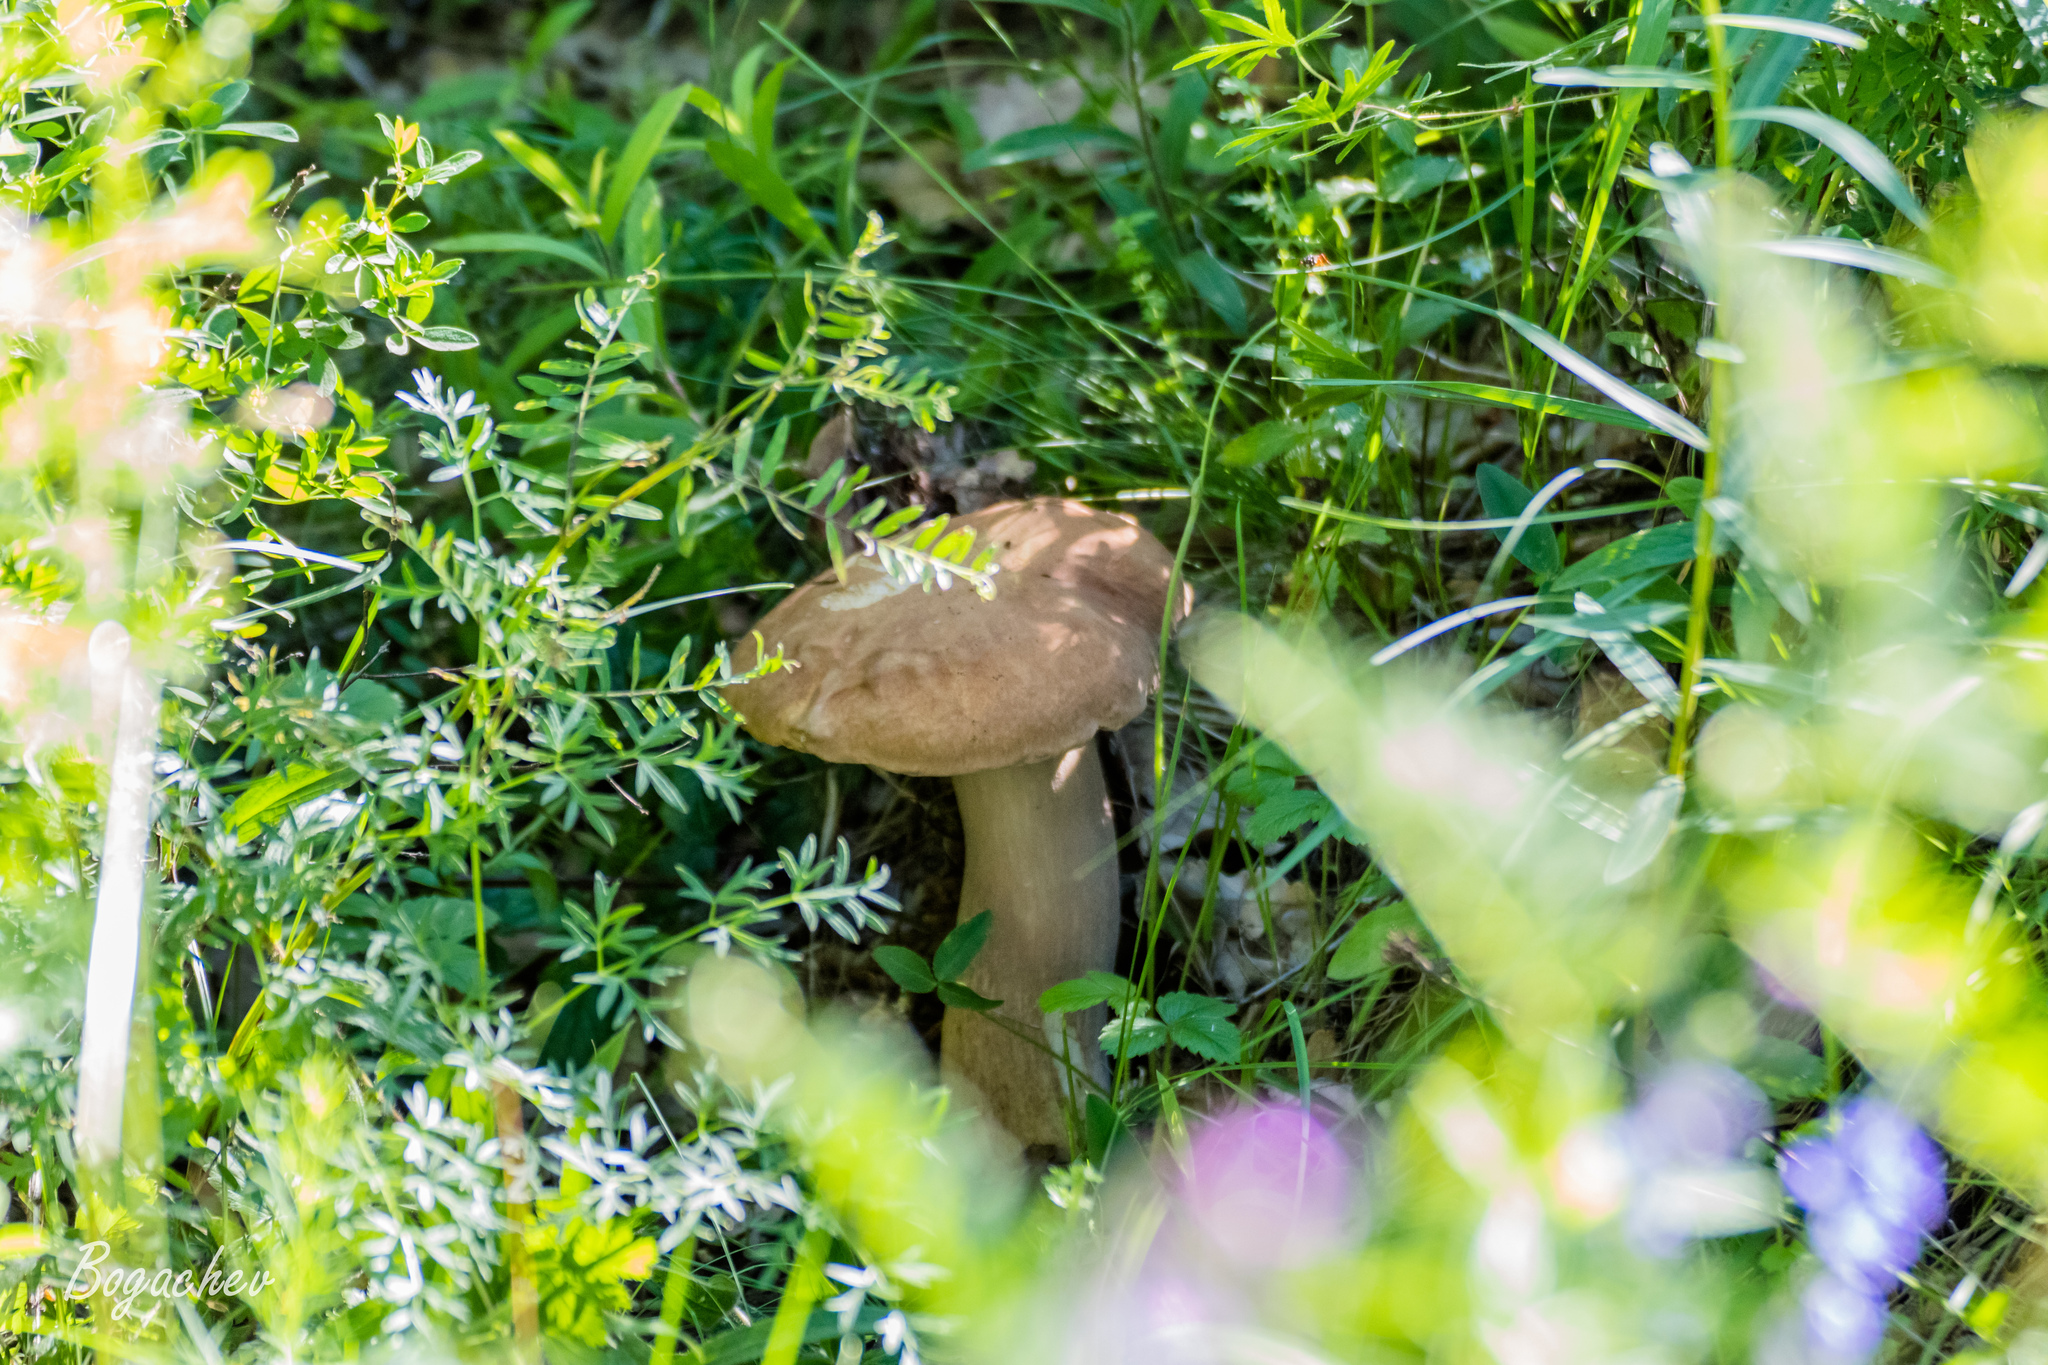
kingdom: Fungi
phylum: Basidiomycota
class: Agaricomycetes
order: Boletales
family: Boletaceae
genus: Boletus
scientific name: Boletus reticulatus
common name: Summer bolete
